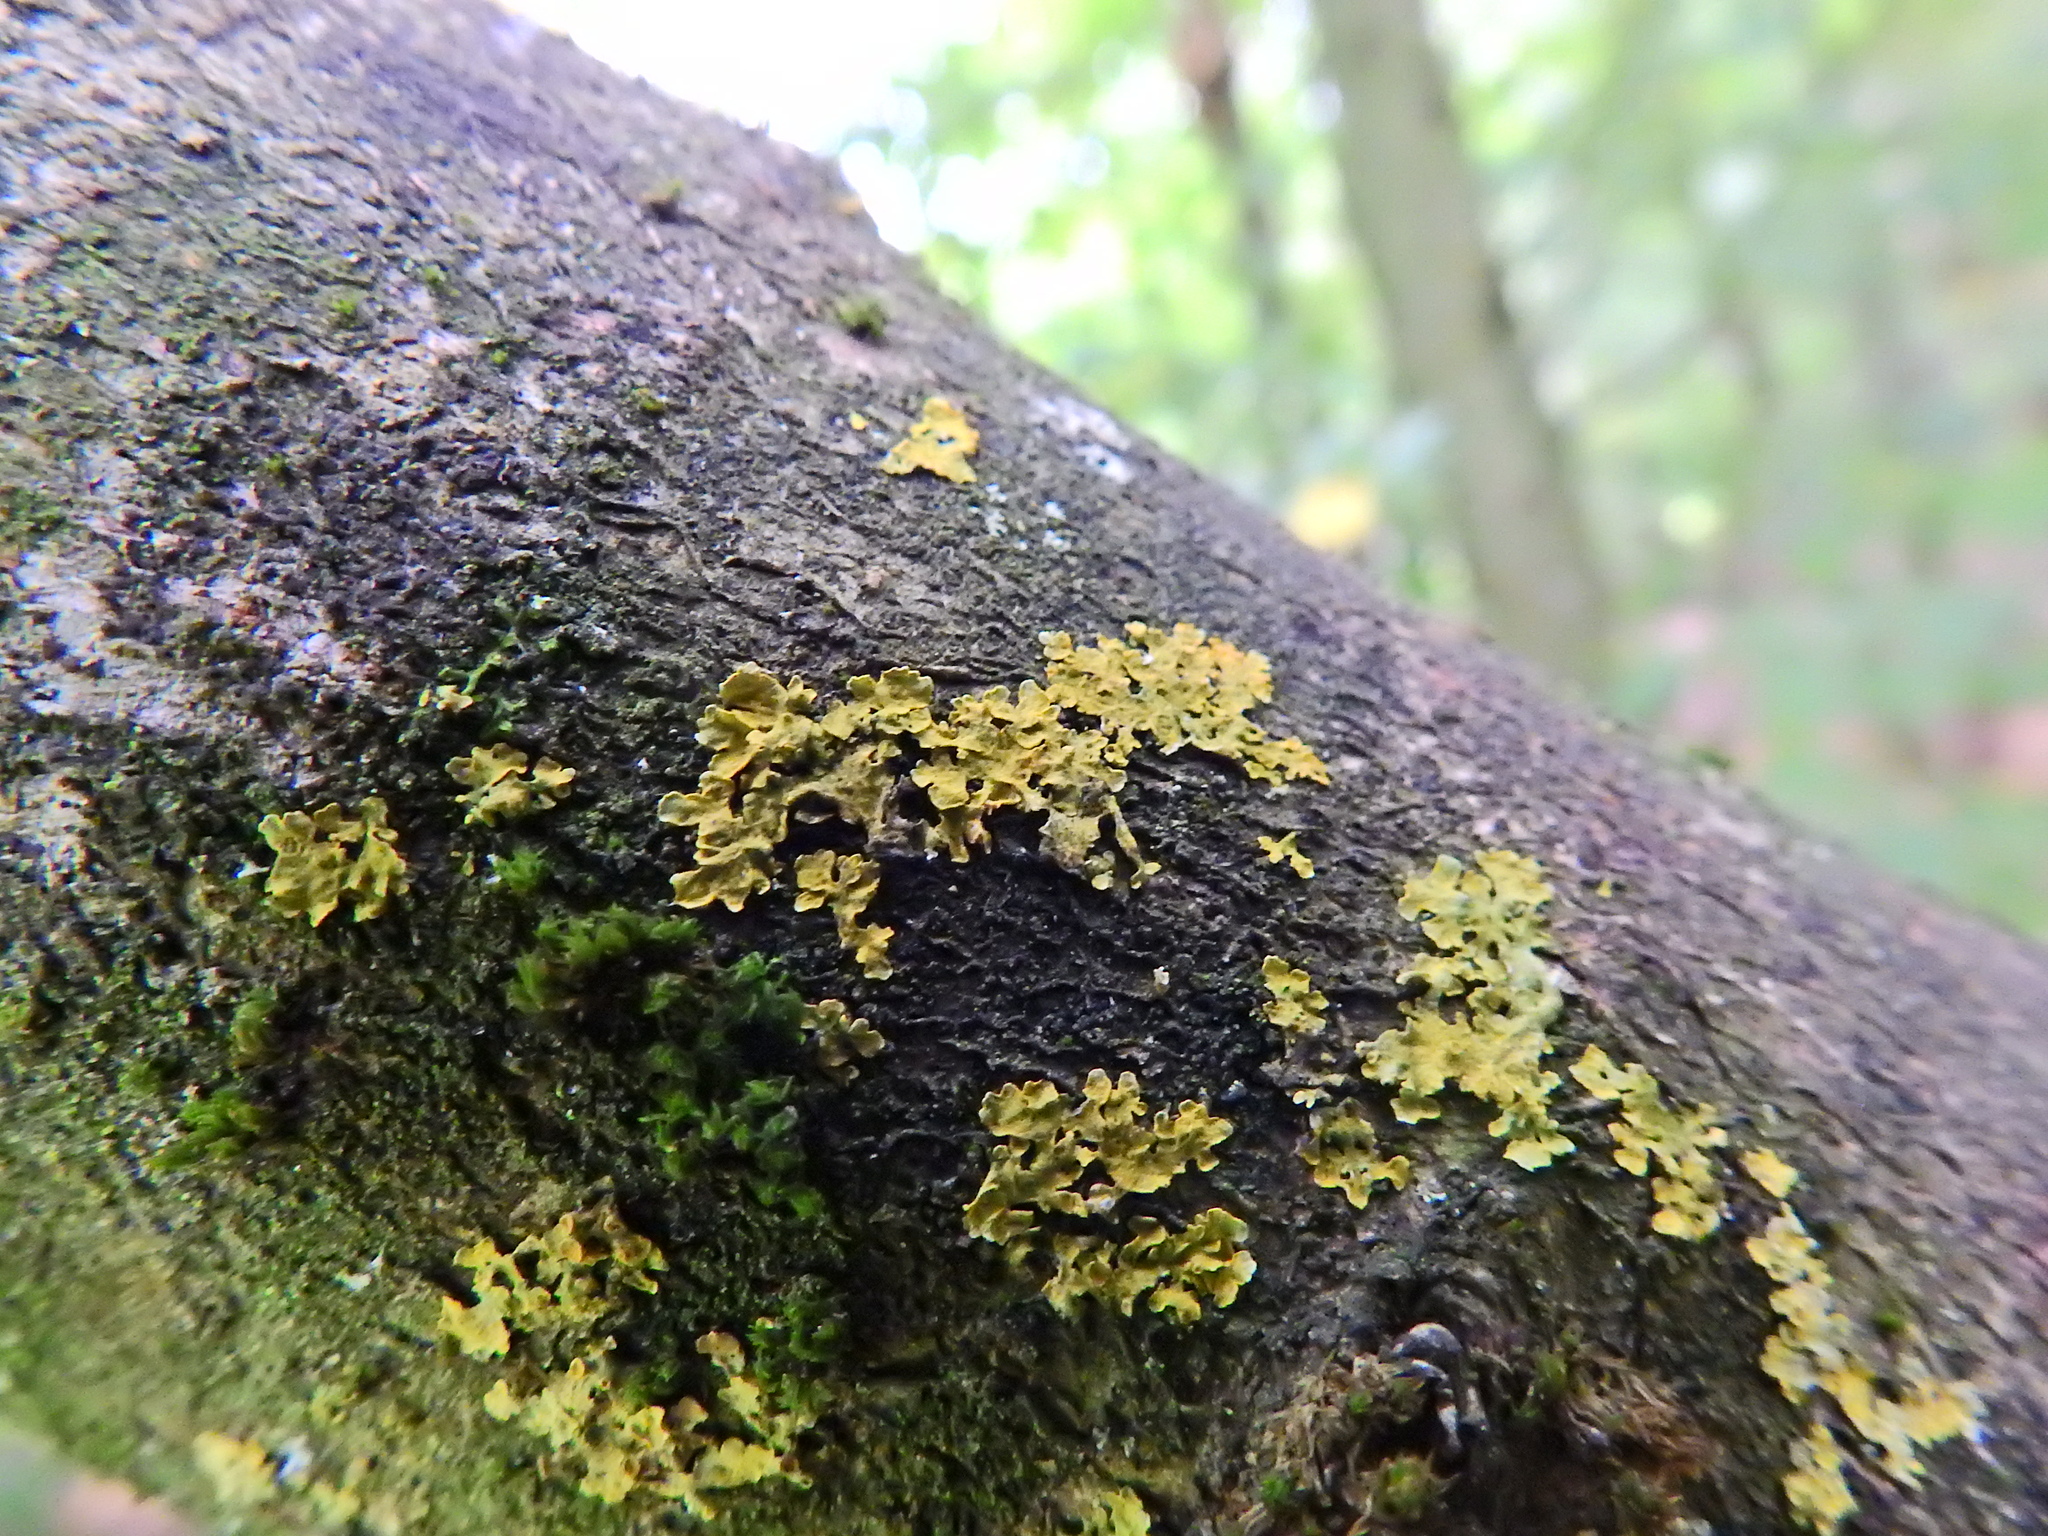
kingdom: Fungi
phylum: Ascomycota
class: Lecanoromycetes
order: Teloschistales
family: Teloschistaceae
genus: Xanthoria
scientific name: Xanthoria parietina
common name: Common orange lichen
